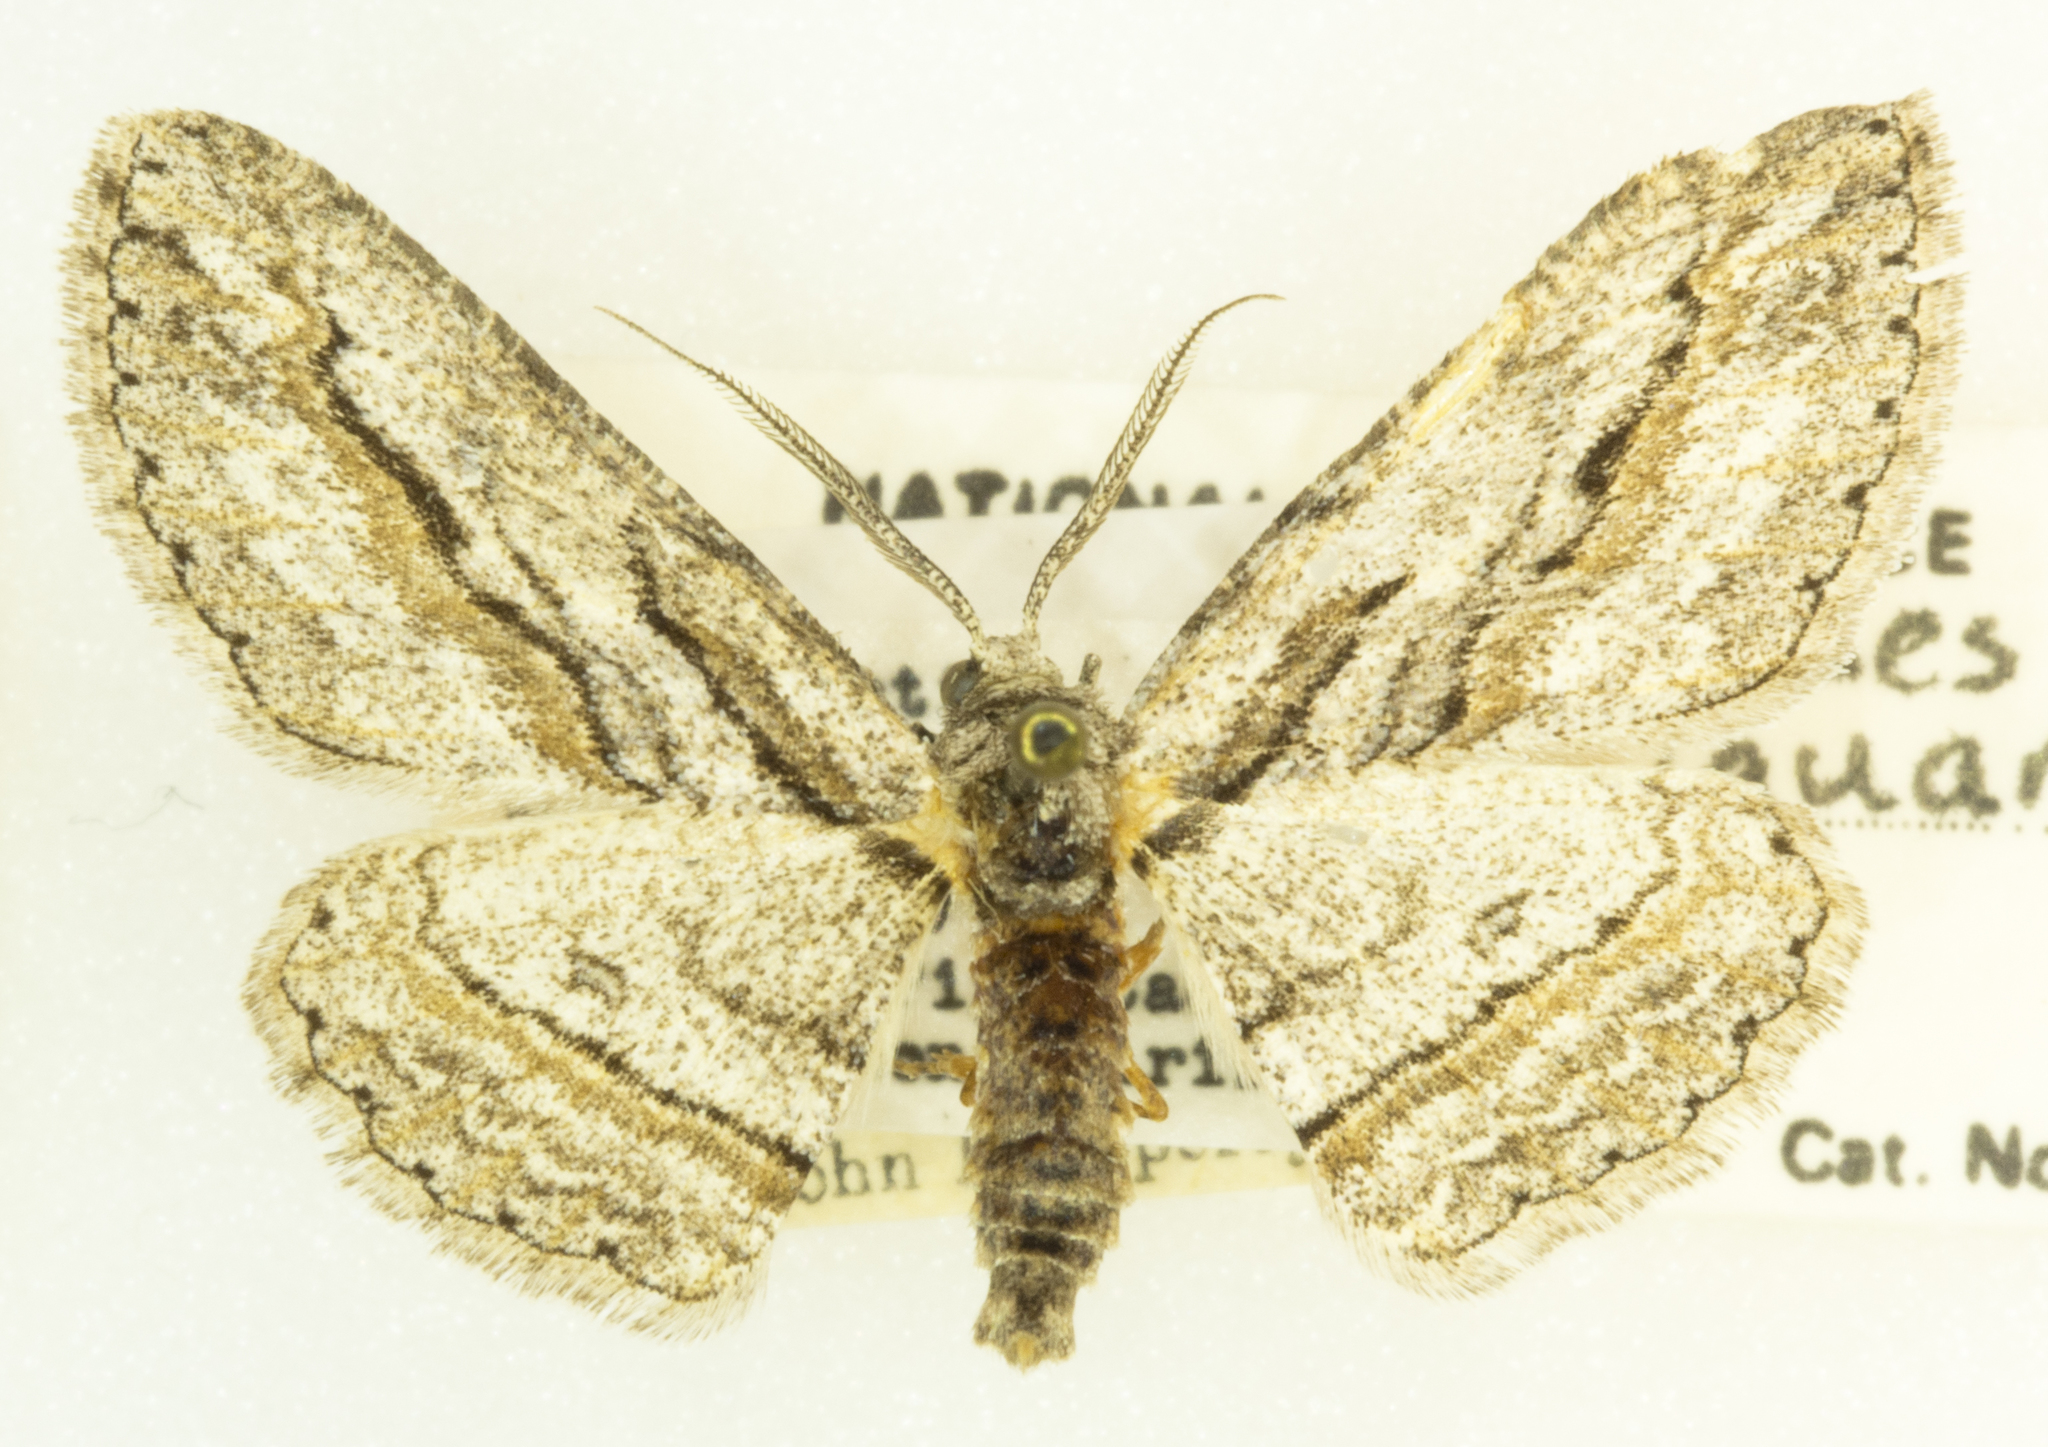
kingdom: Animalia
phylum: Arthropoda
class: Insecta
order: Lepidoptera
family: Geometridae
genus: Iridopsis
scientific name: Iridopsis obliquaria
